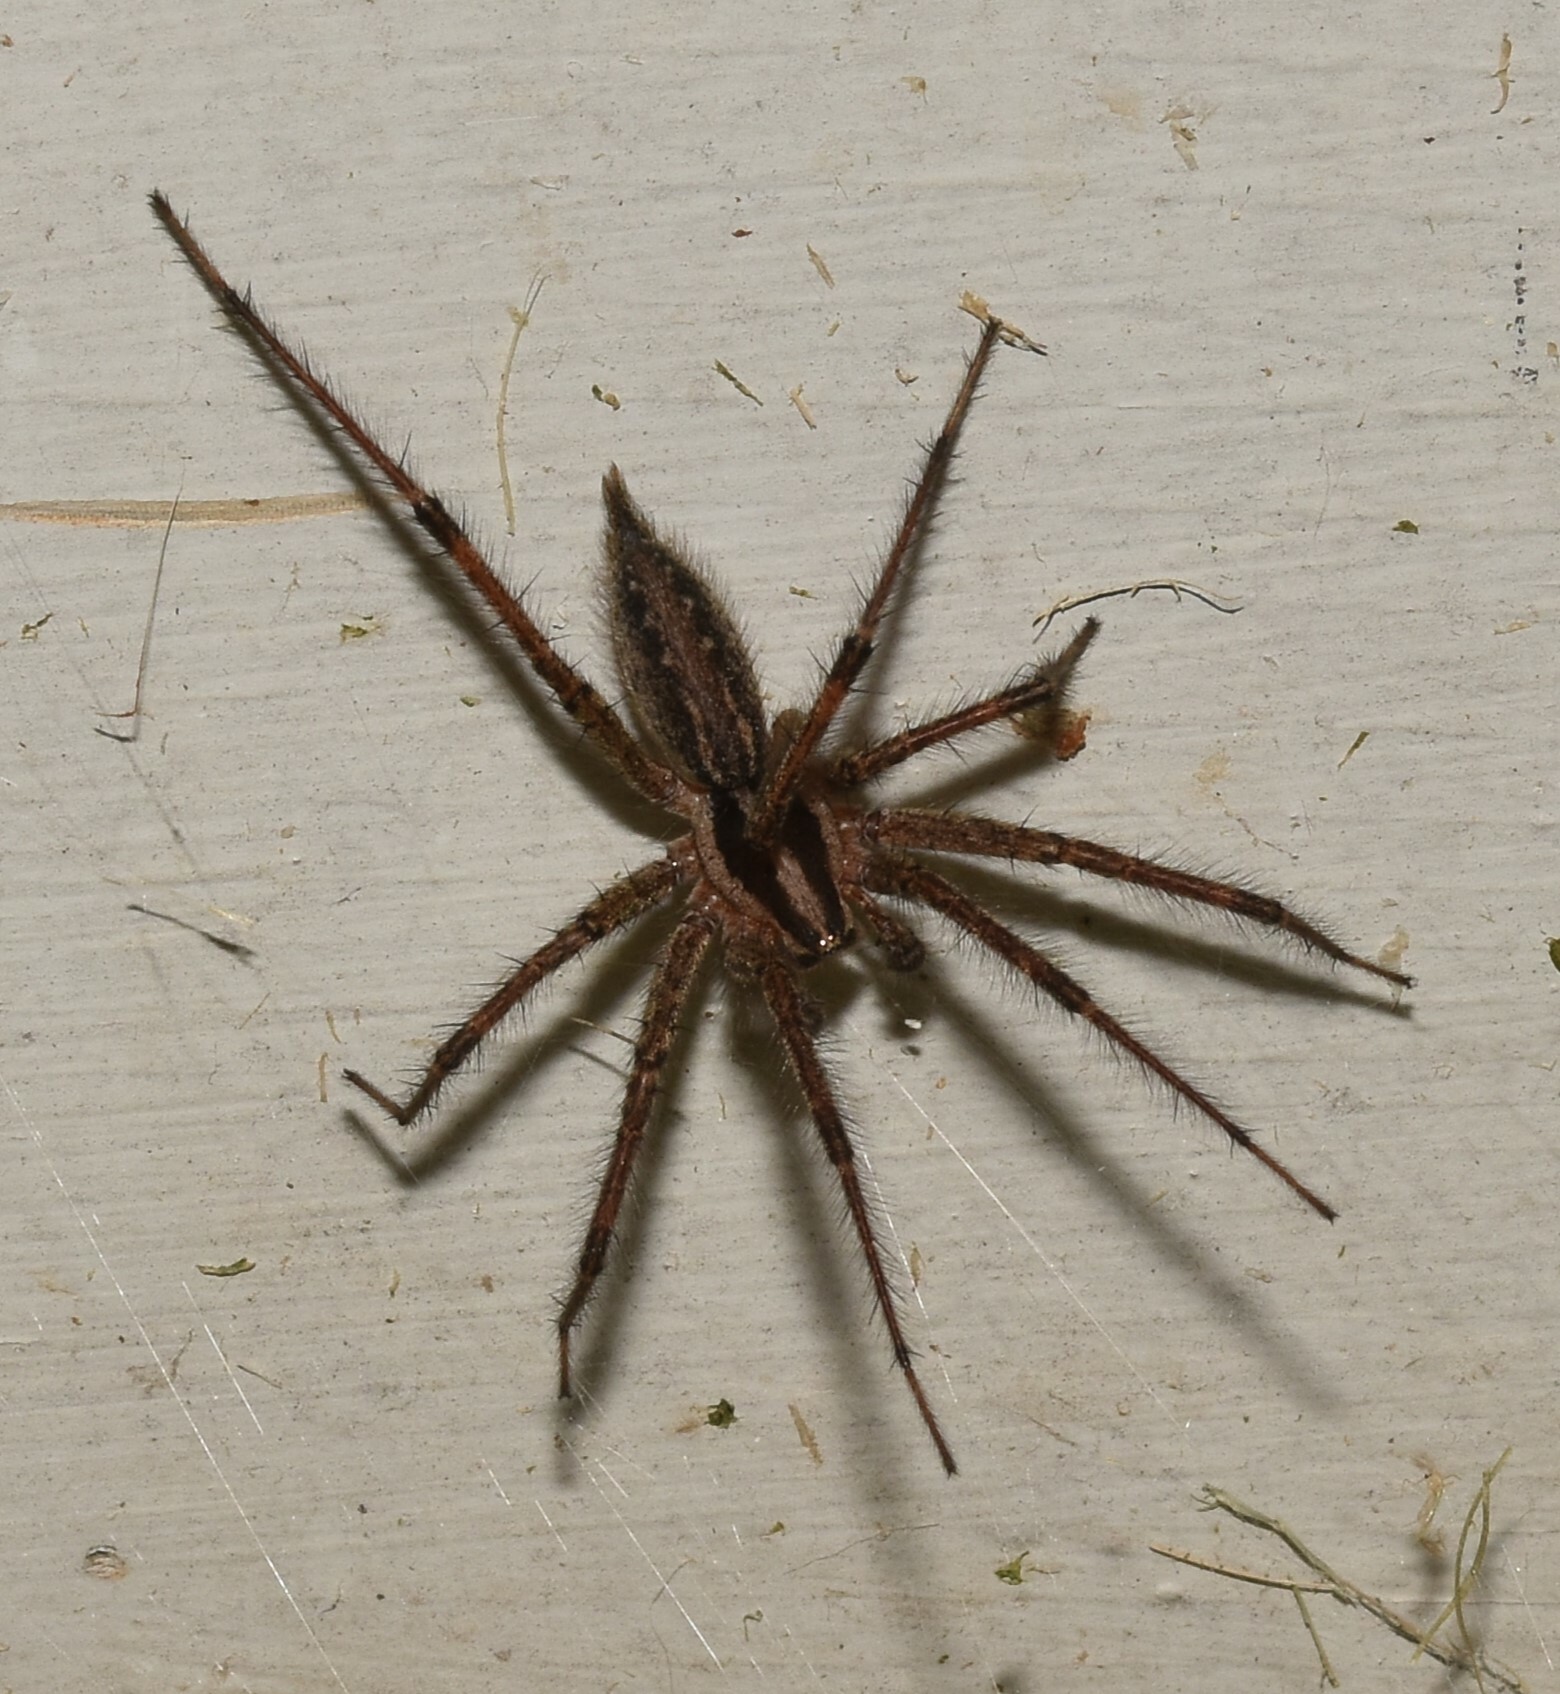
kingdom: Animalia
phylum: Arthropoda
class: Arachnida
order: Araneae
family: Agelenidae
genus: Agelenopsis
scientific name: Agelenopsis
